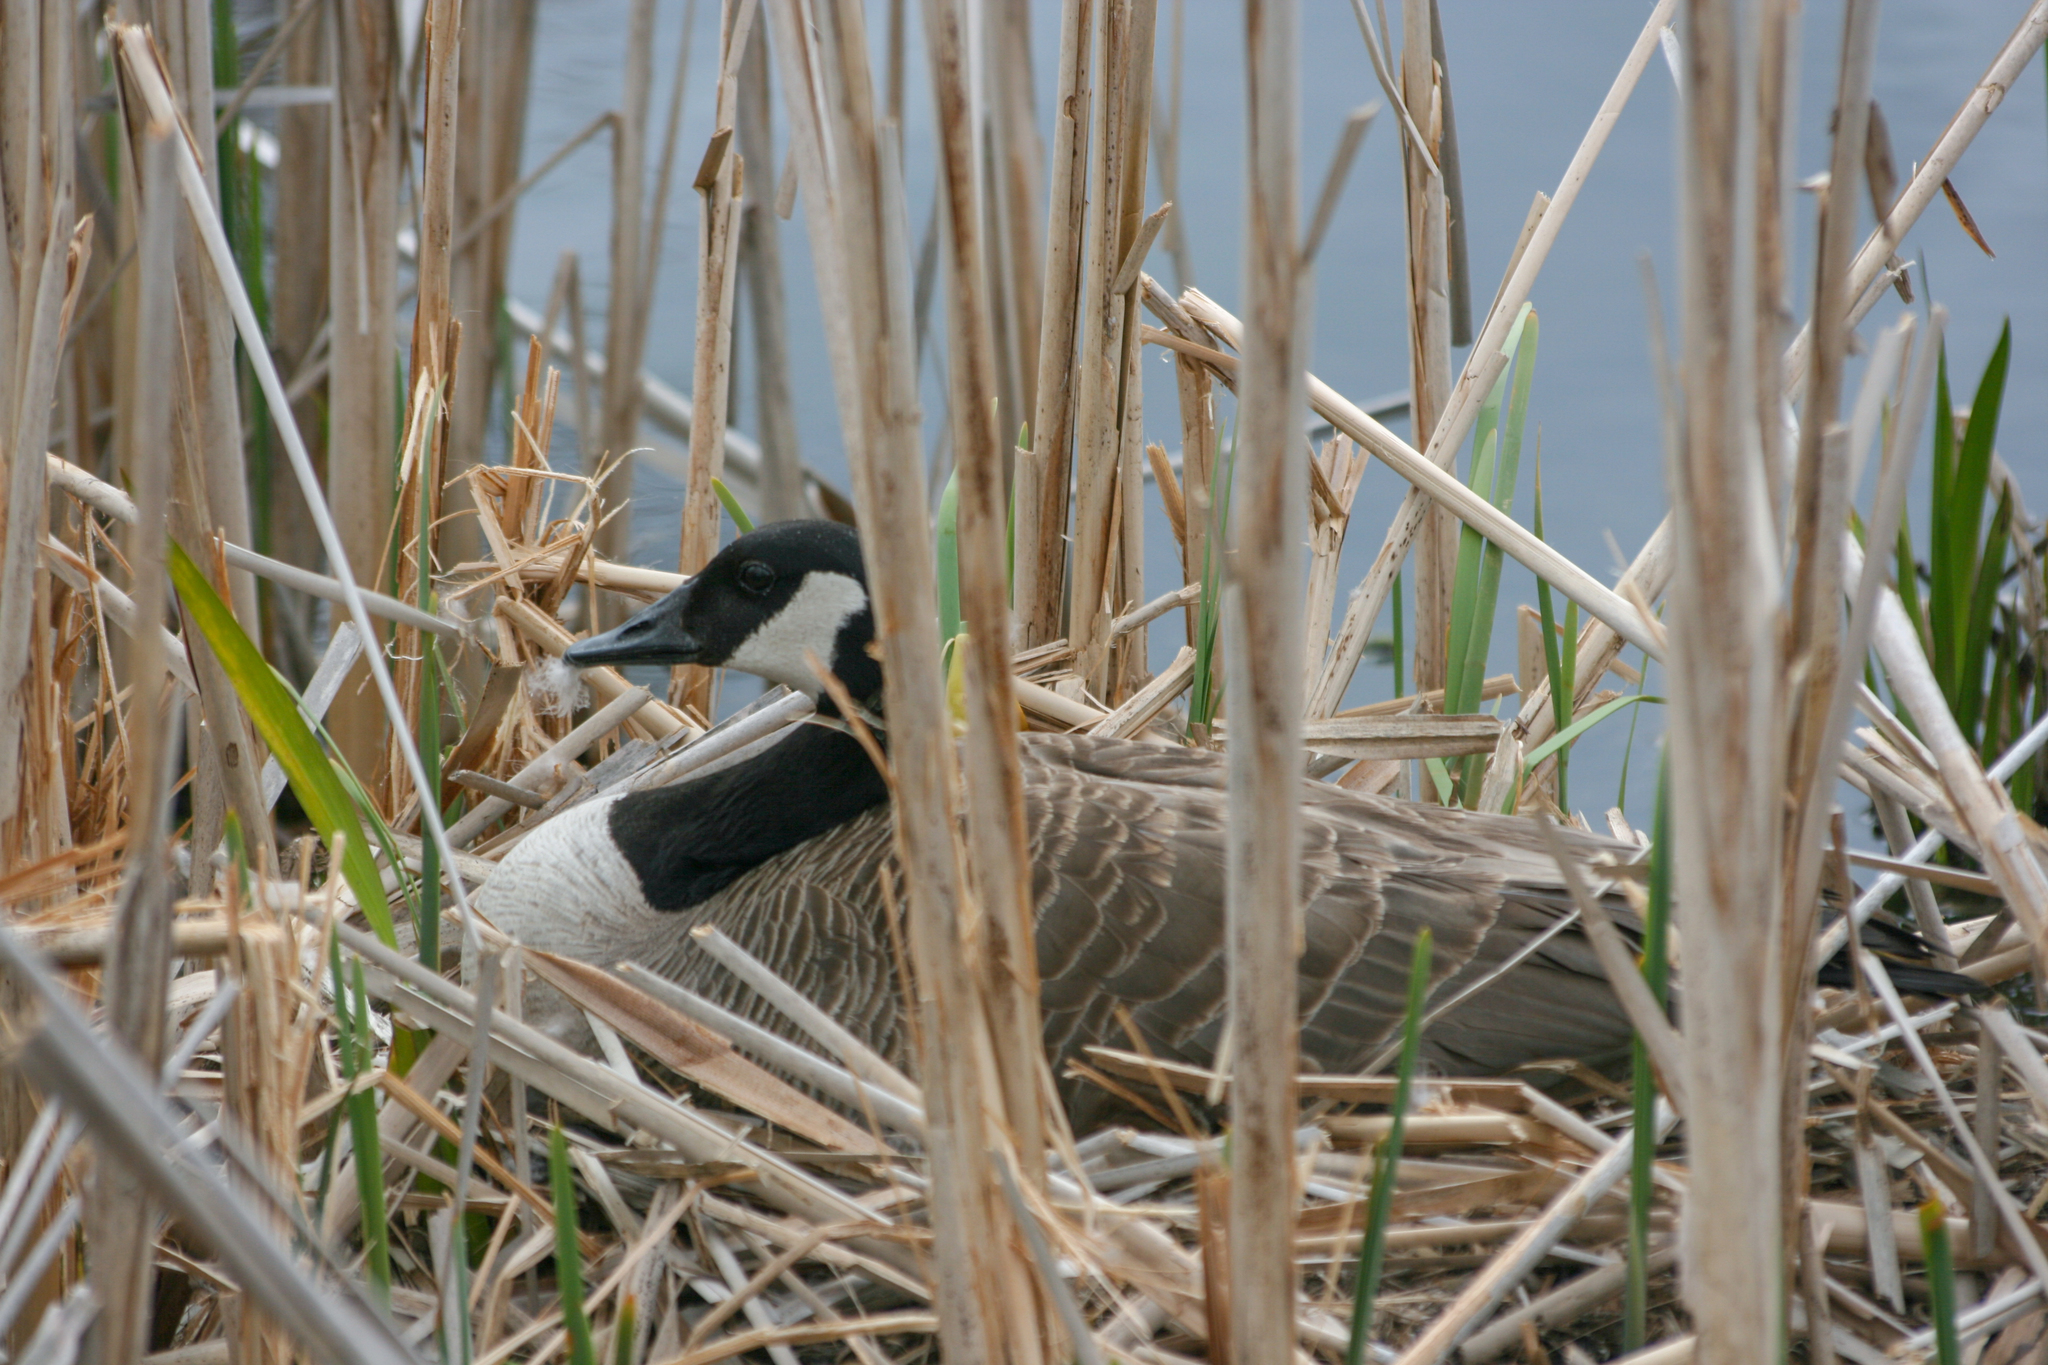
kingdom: Animalia
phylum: Chordata
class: Aves
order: Anseriformes
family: Anatidae
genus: Branta
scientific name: Branta canadensis
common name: Canada goose
